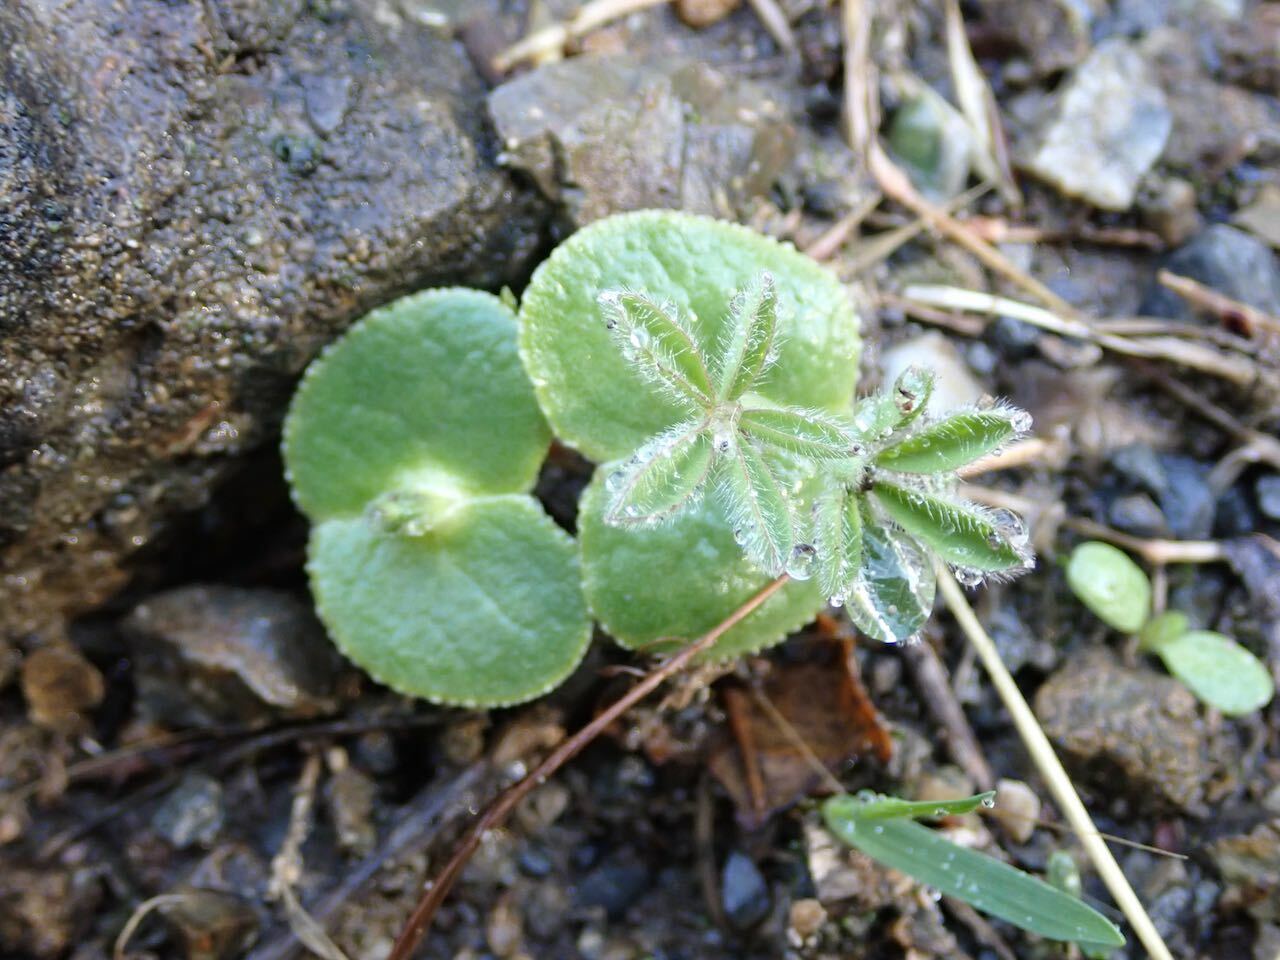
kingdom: Plantae
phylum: Tracheophyta
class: Magnoliopsida
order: Fabales
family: Fabaceae
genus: Lupinus
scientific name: Lupinus microcarpus
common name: Chick lupine
